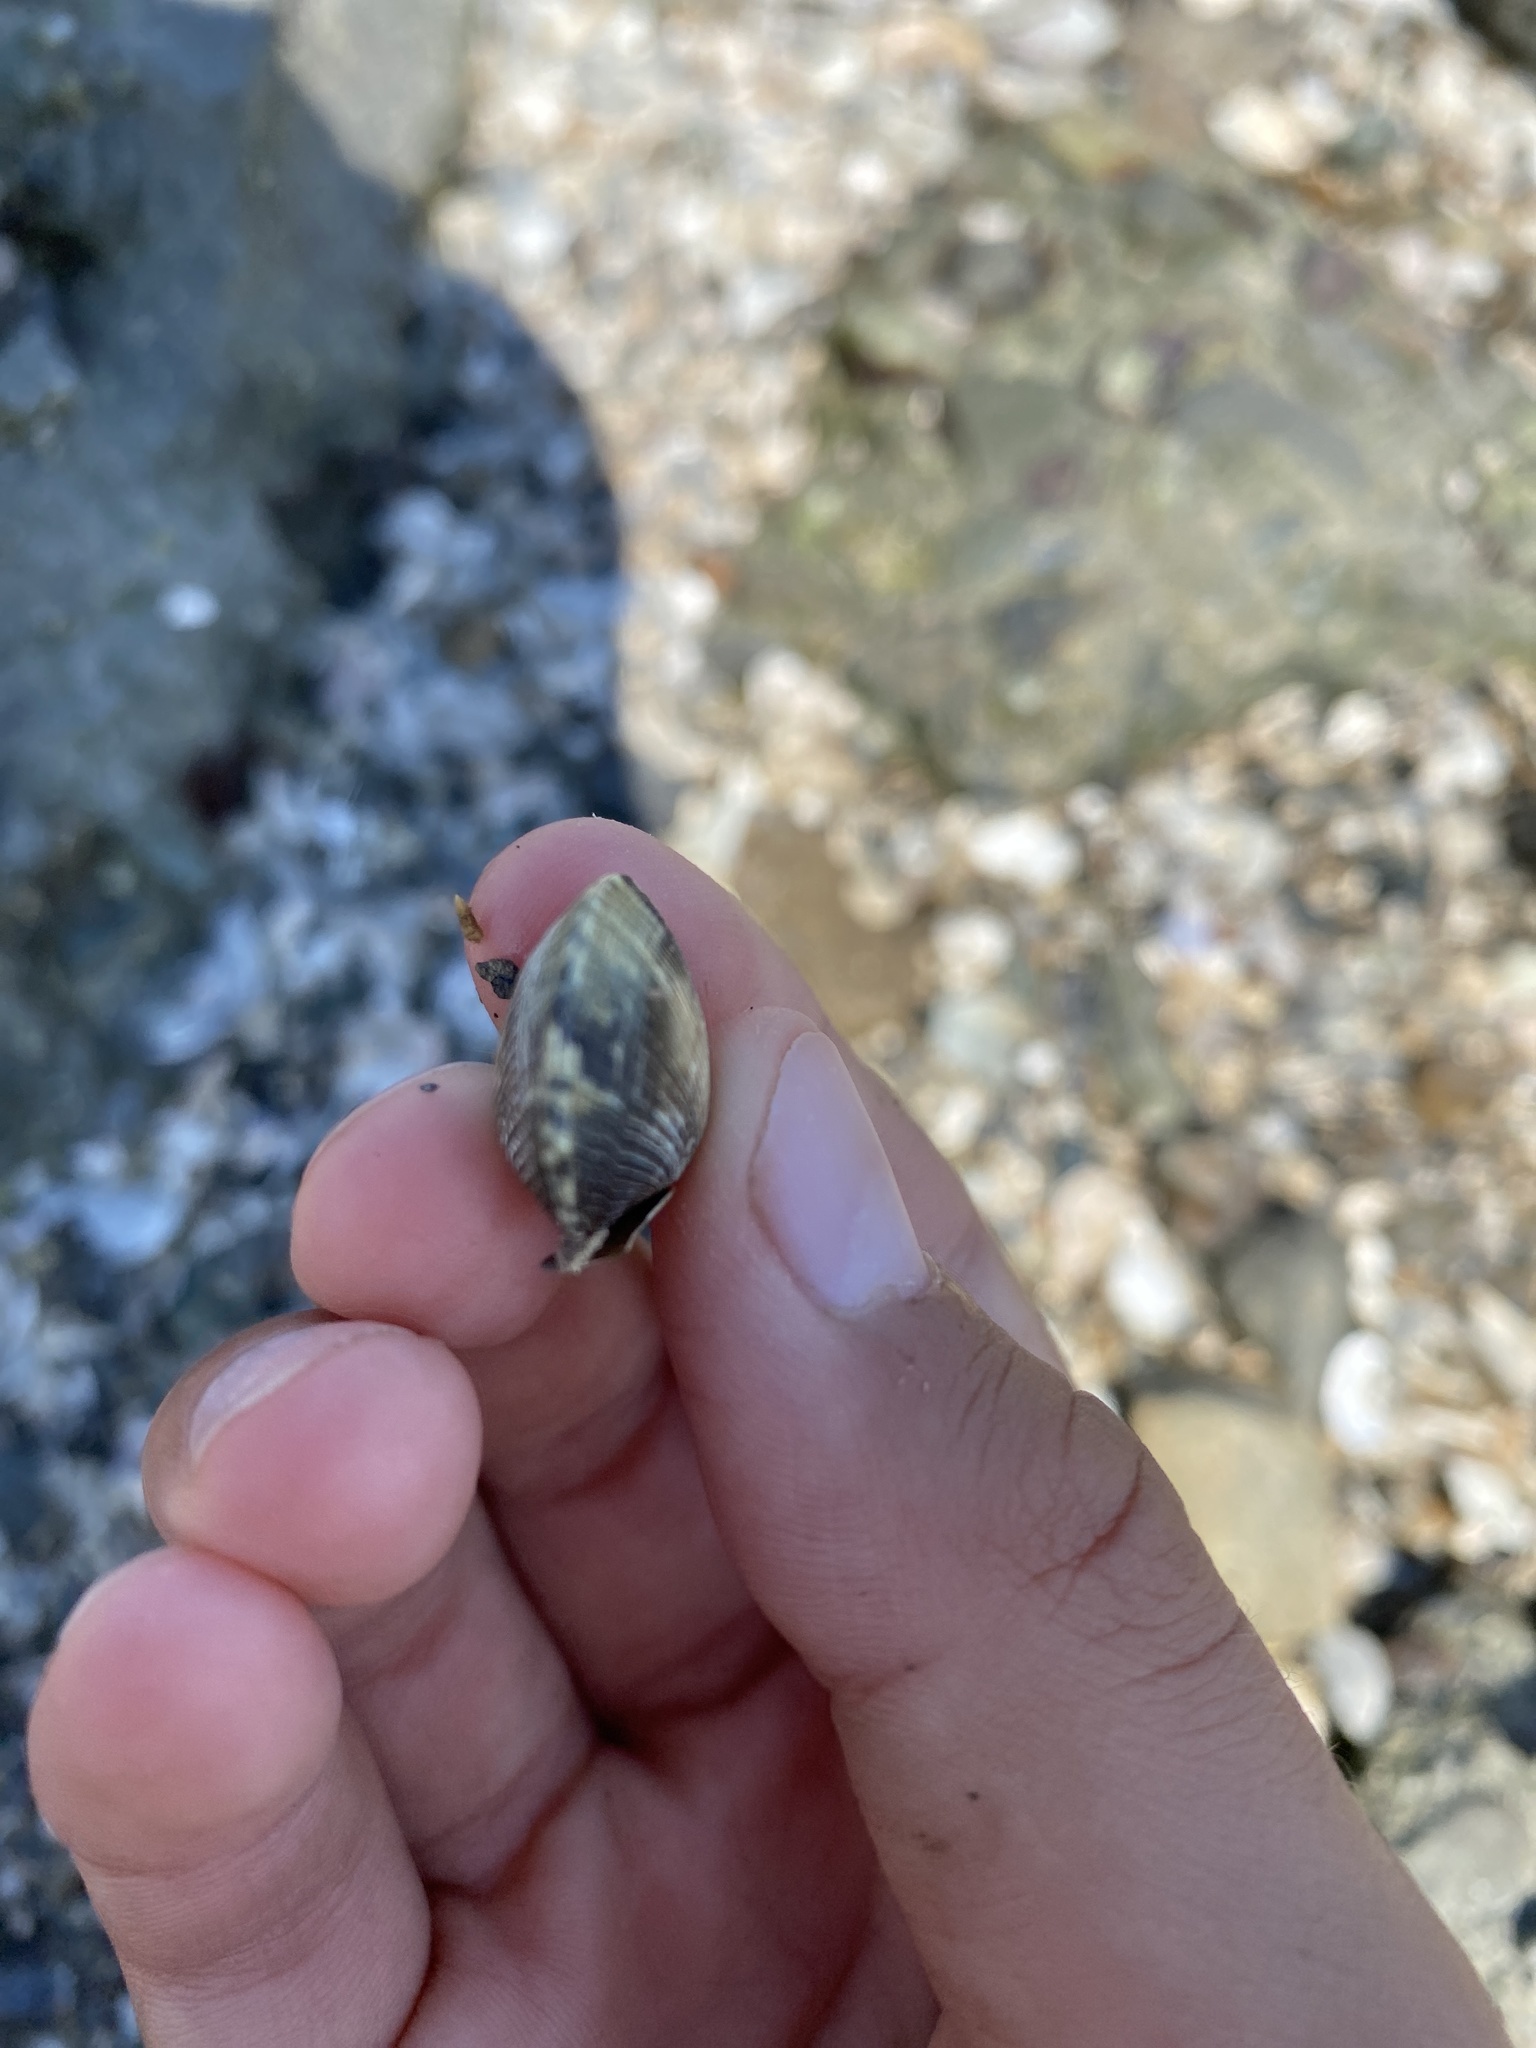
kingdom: Animalia
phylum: Mollusca
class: Bivalvia
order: Venerida
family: Veneridae
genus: Ruditapes
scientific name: Ruditapes philippinarum
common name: Manila clam
